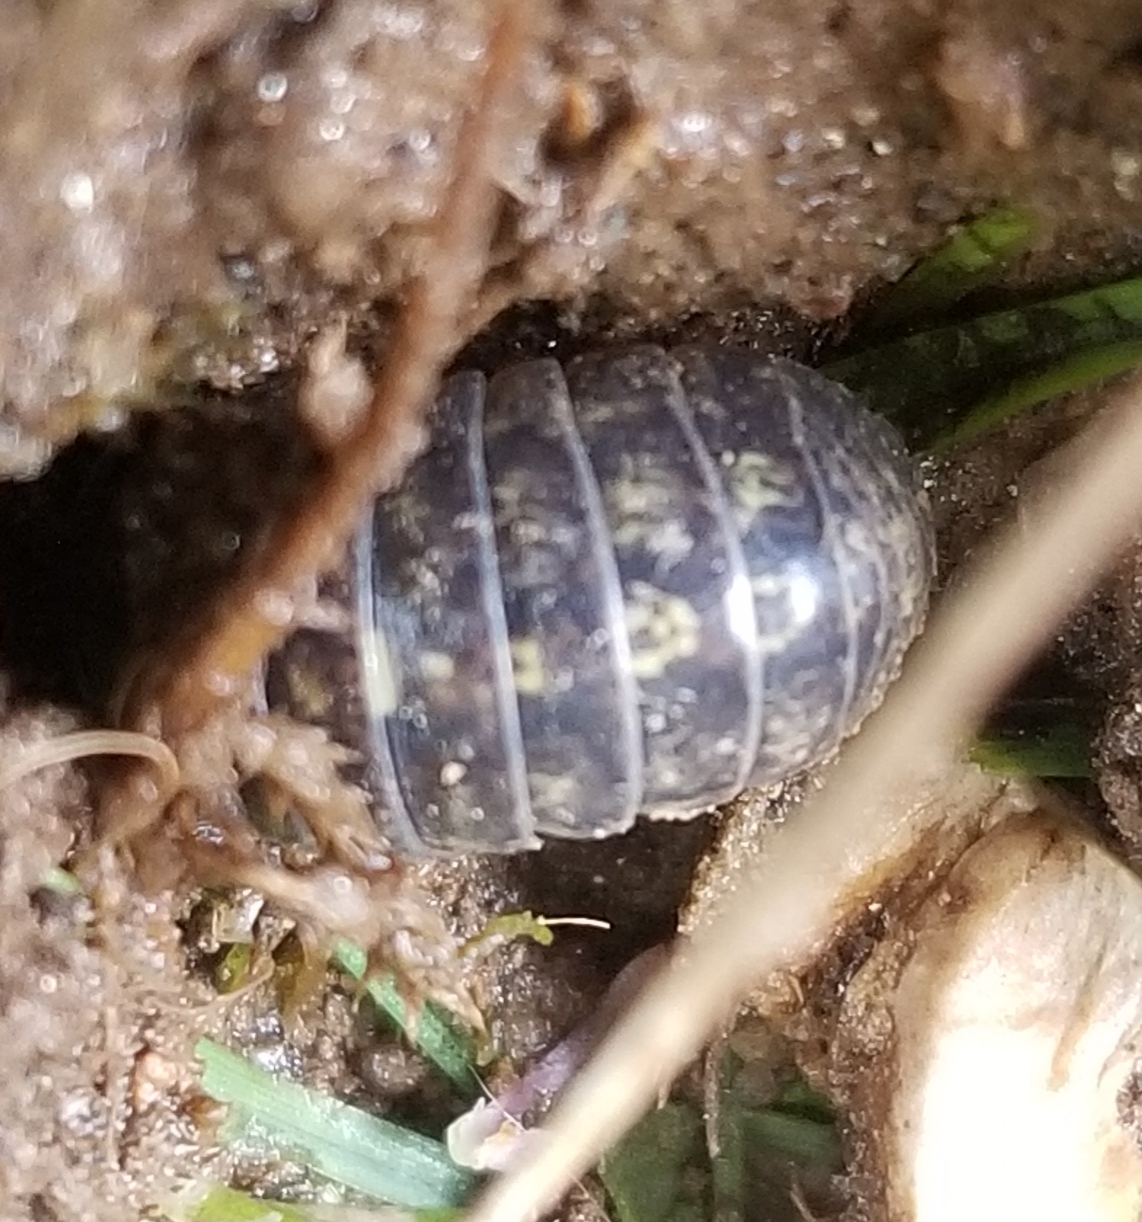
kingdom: Animalia
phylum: Arthropoda
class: Malacostraca
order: Isopoda
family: Armadillidiidae
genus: Armadillidium
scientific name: Armadillidium vulgare
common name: Common pill woodlouse
